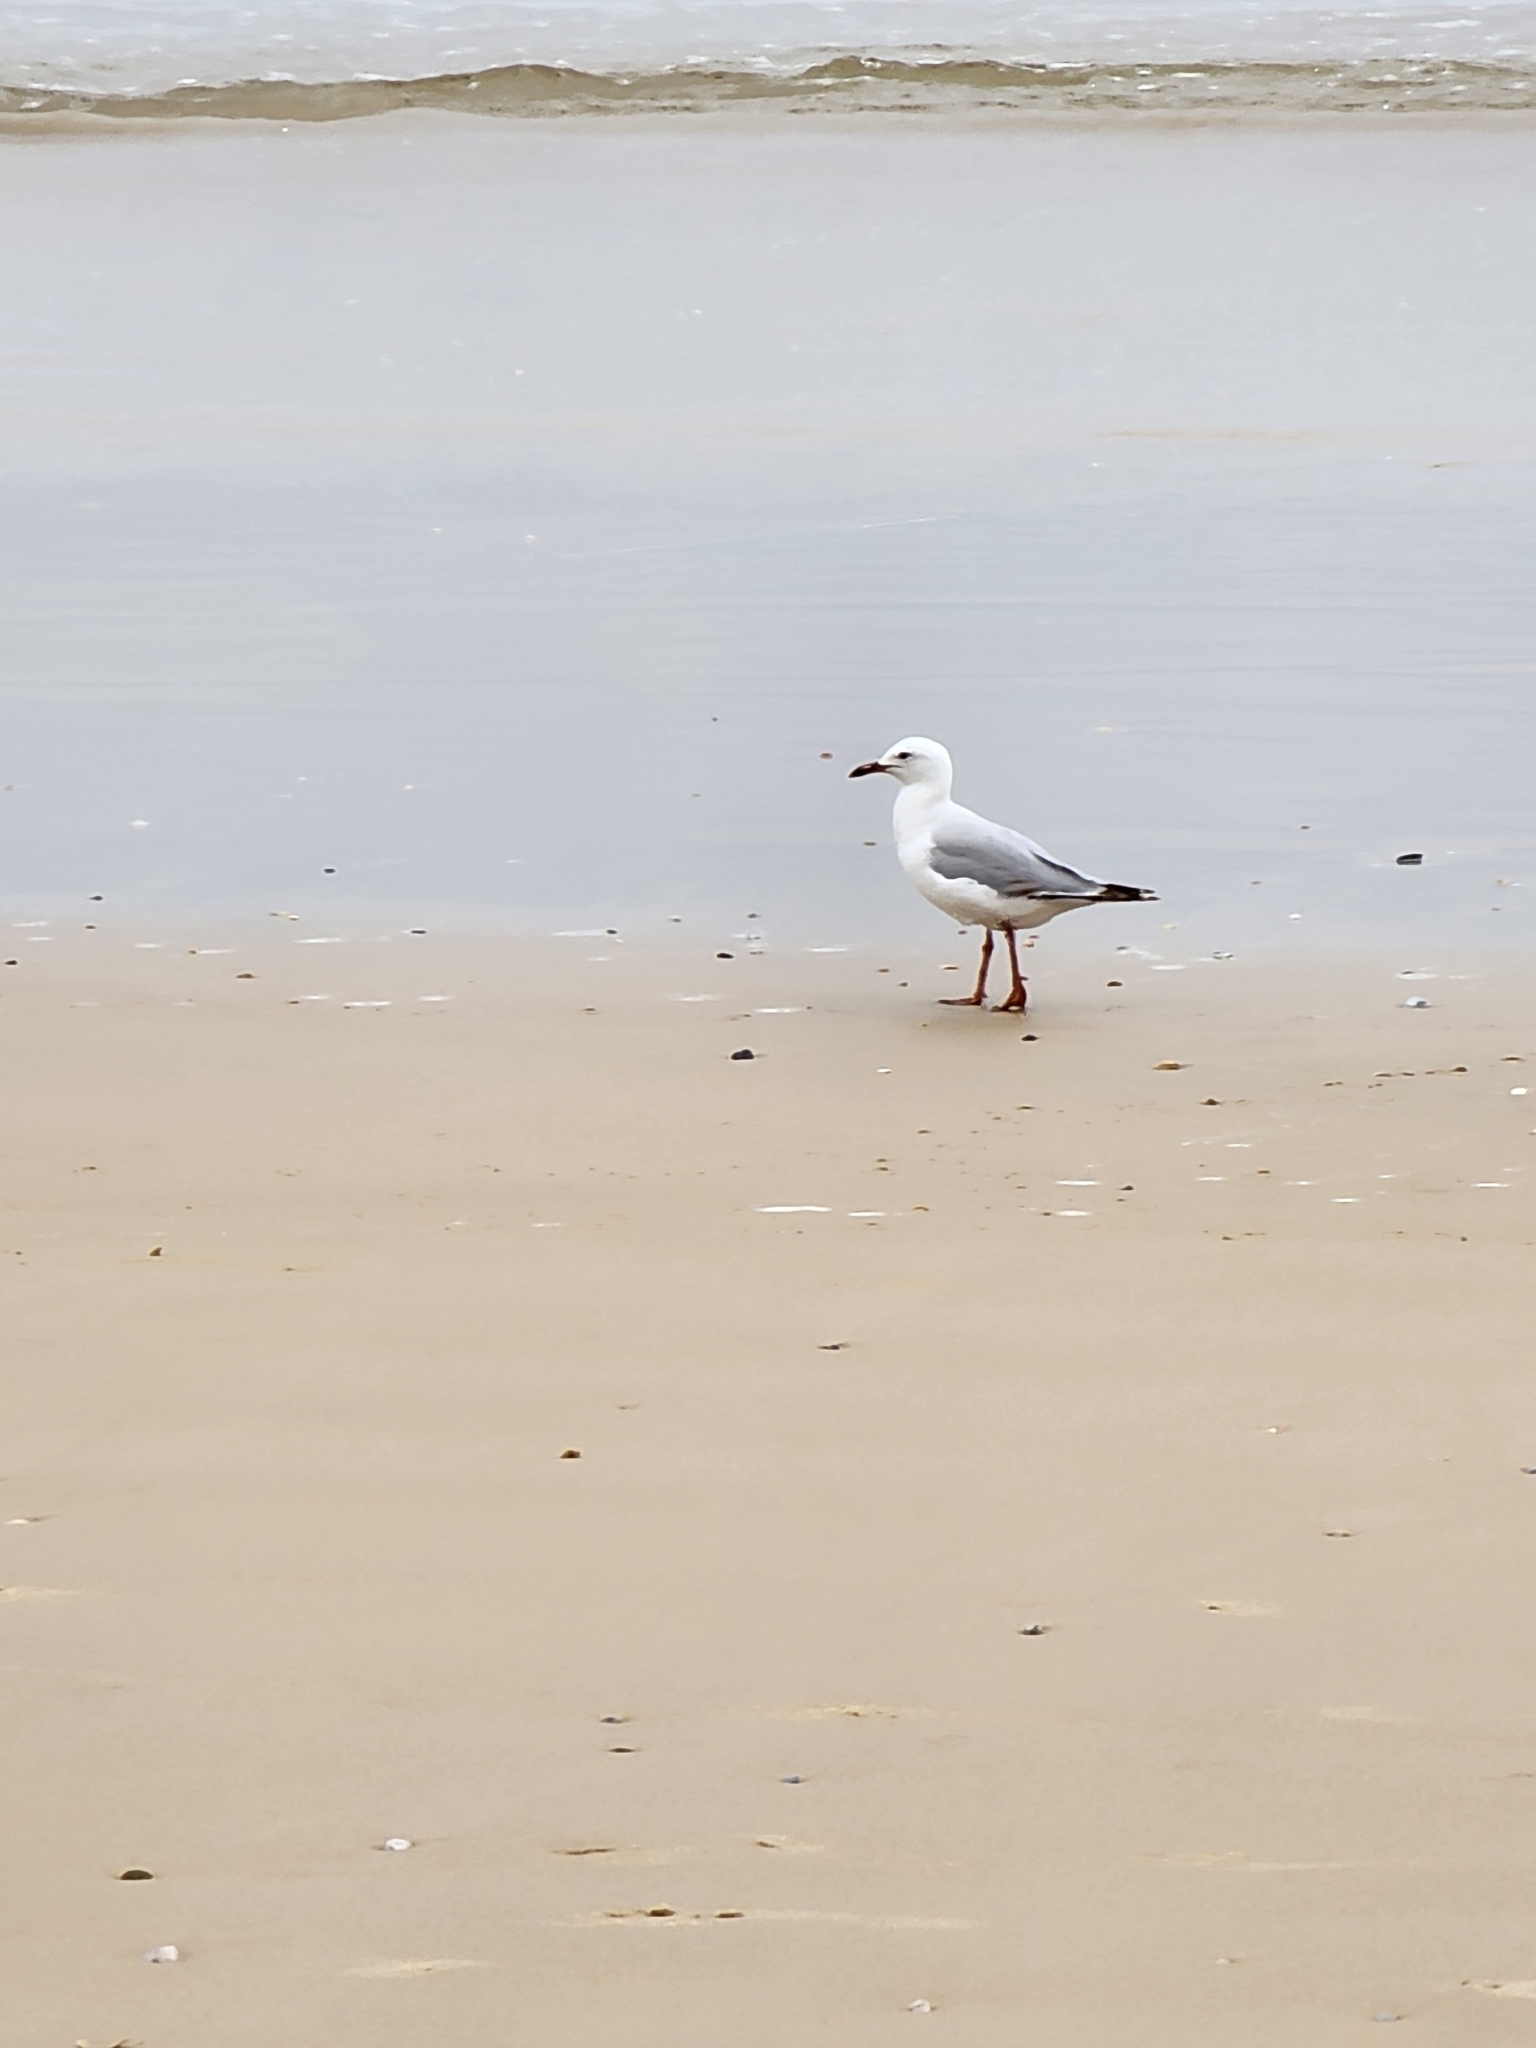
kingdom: Animalia
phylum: Chordata
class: Aves
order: Charadriiformes
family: Laridae
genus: Chroicocephalus
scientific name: Chroicocephalus novaehollandiae
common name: Silver gull
